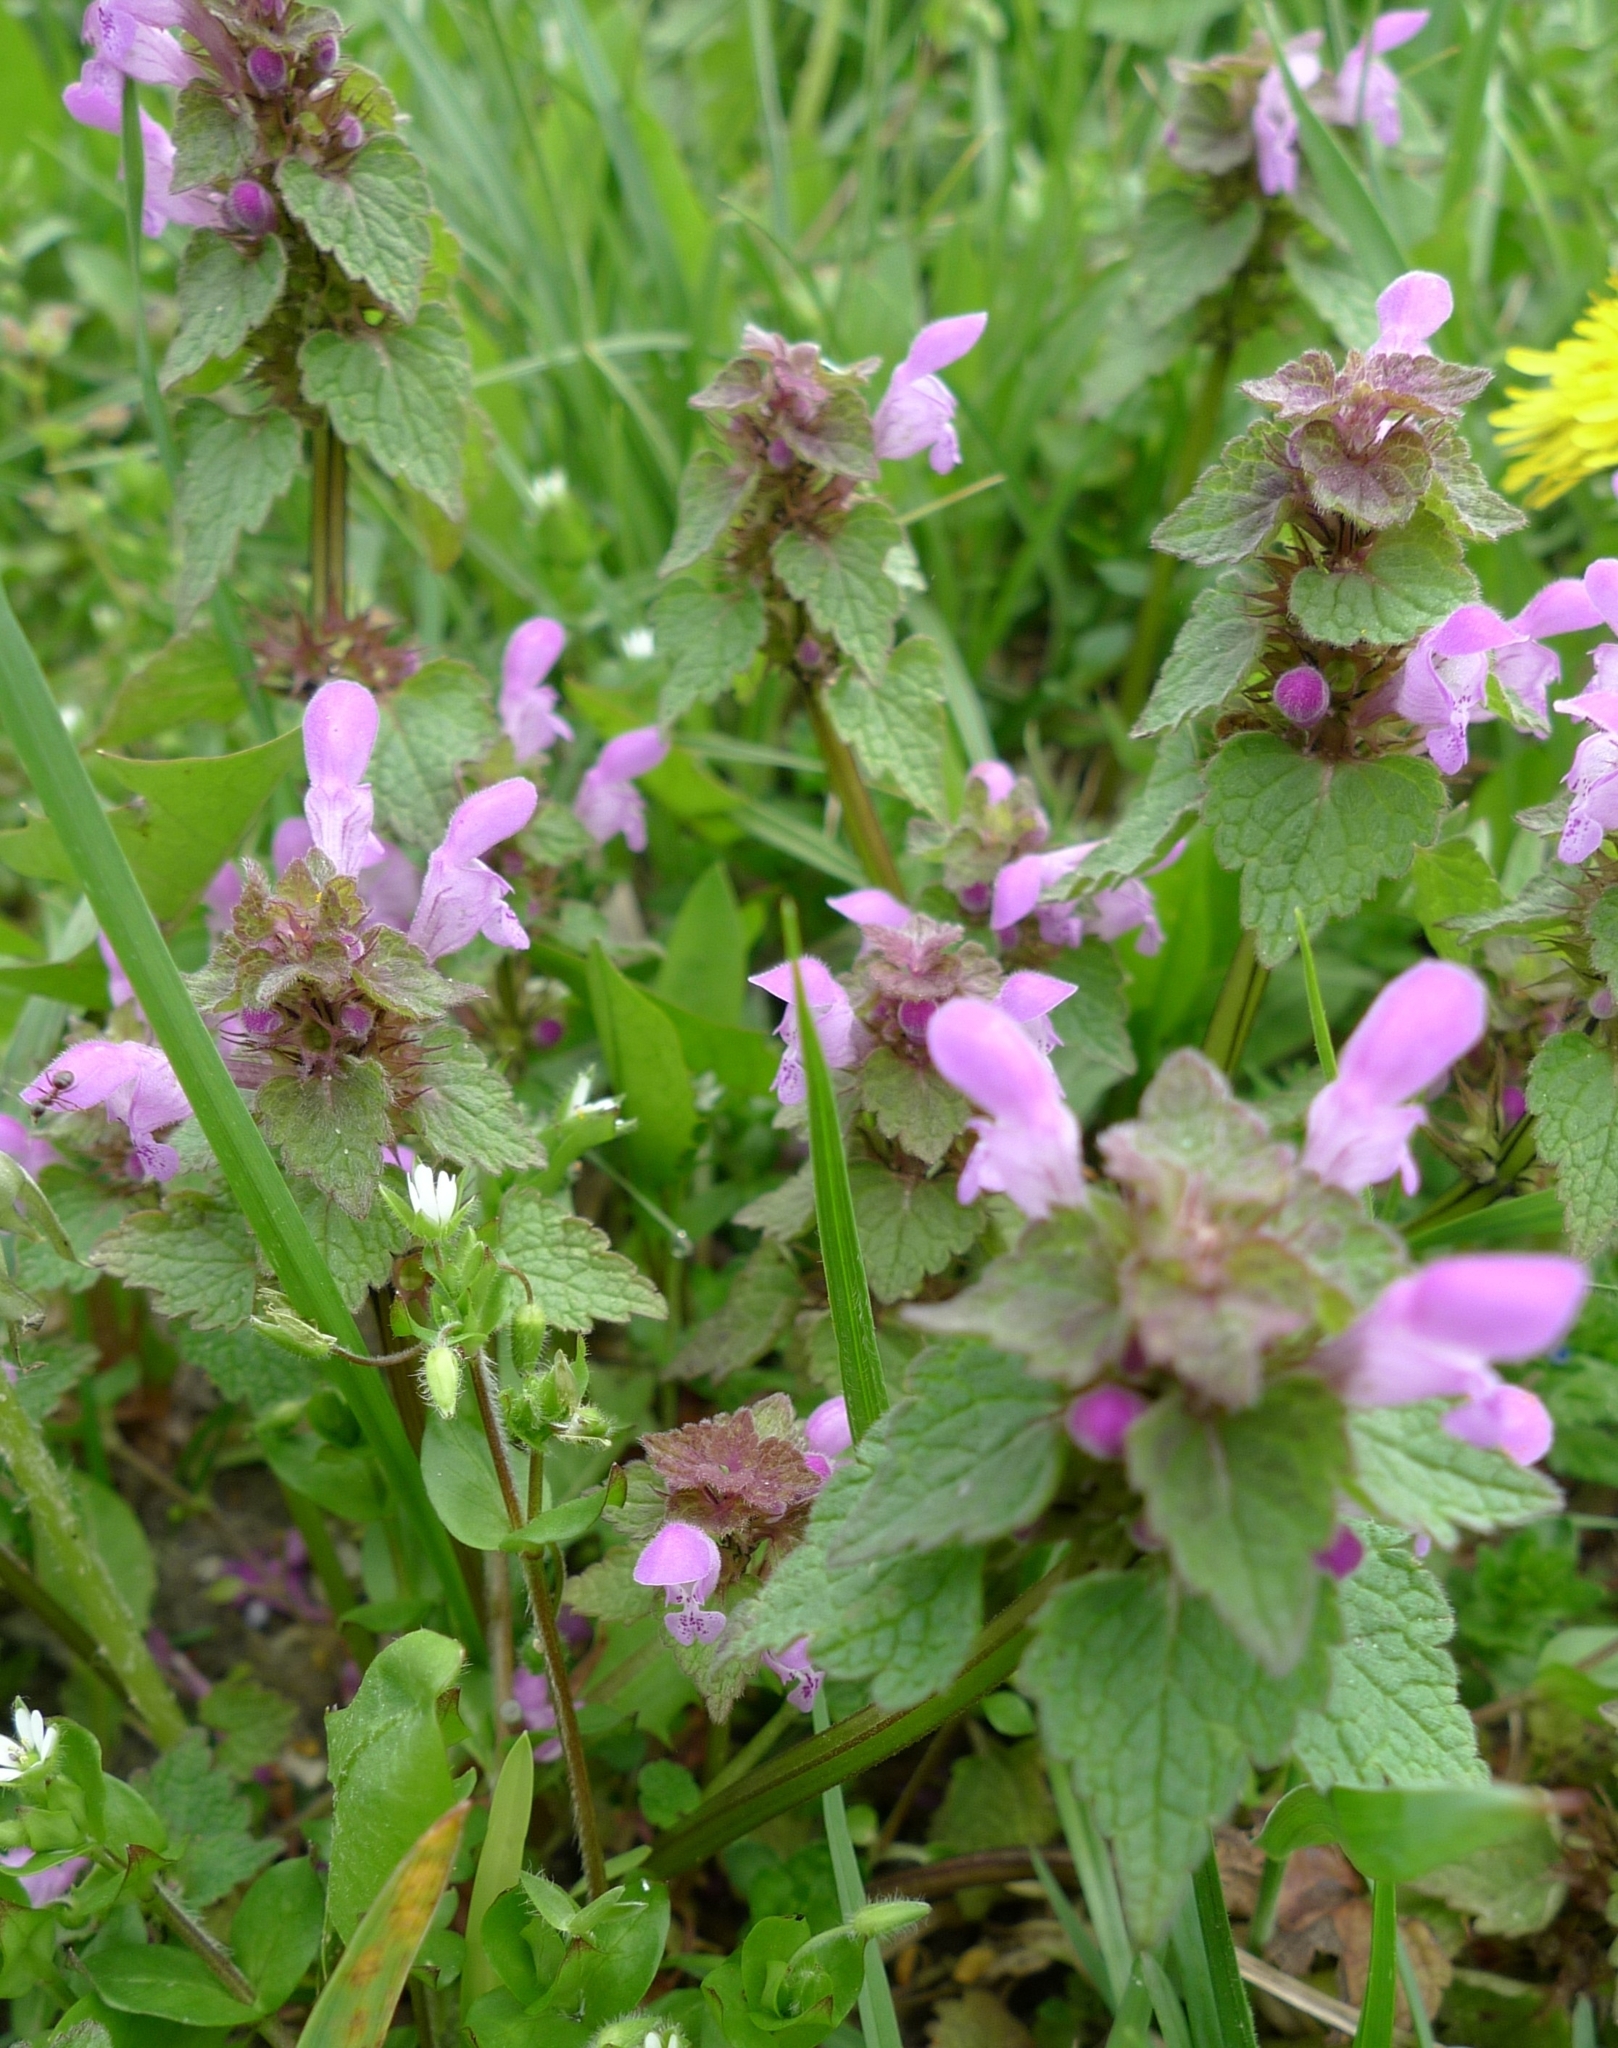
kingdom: Plantae
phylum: Tracheophyta
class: Magnoliopsida
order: Lamiales
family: Lamiaceae
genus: Lamium
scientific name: Lamium purpureum
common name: Red dead-nettle
